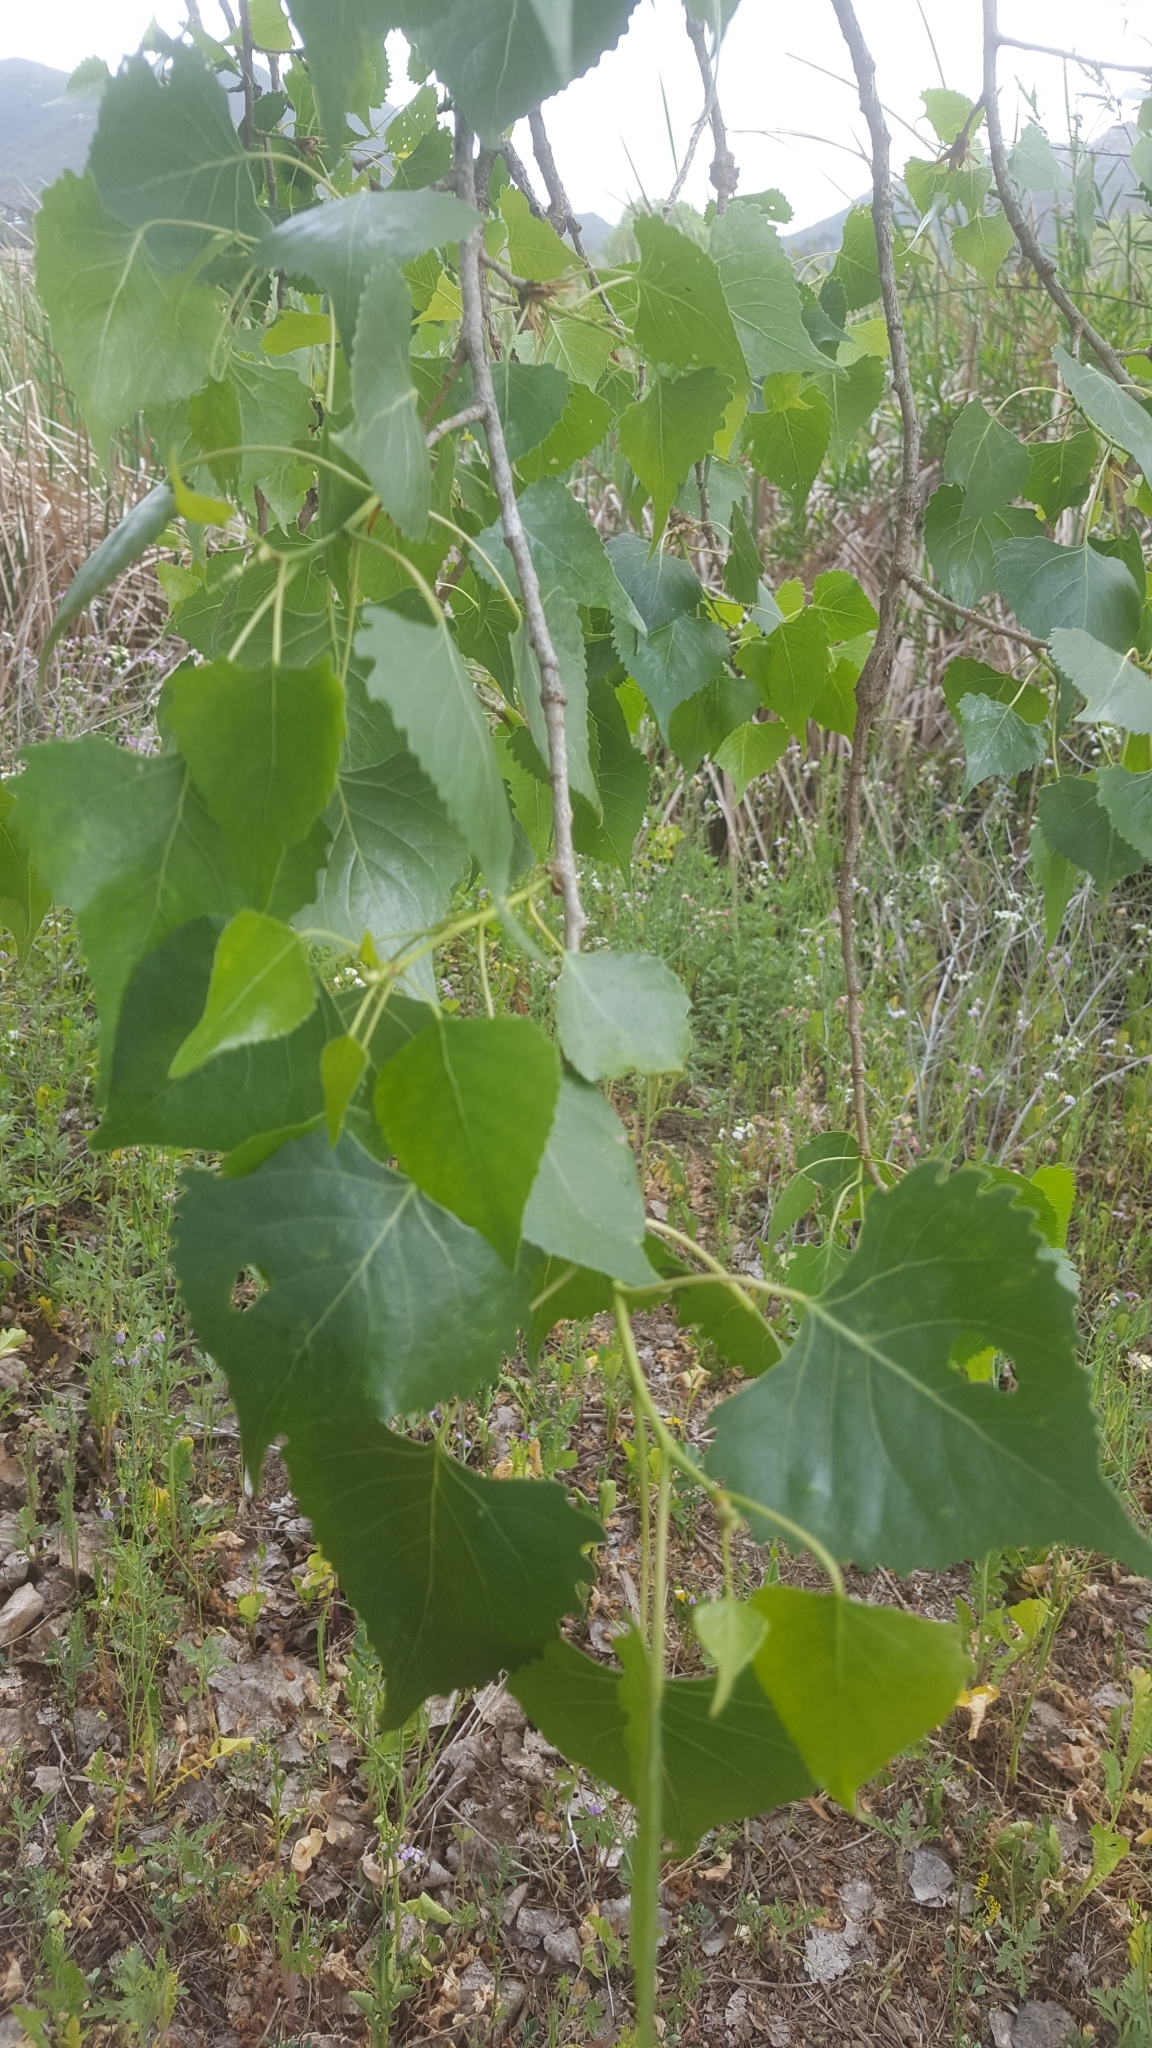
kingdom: Plantae
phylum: Tracheophyta
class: Magnoliopsida
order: Malpighiales
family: Salicaceae
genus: Populus
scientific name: Populus fremontii
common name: Fremont's cottonwood
